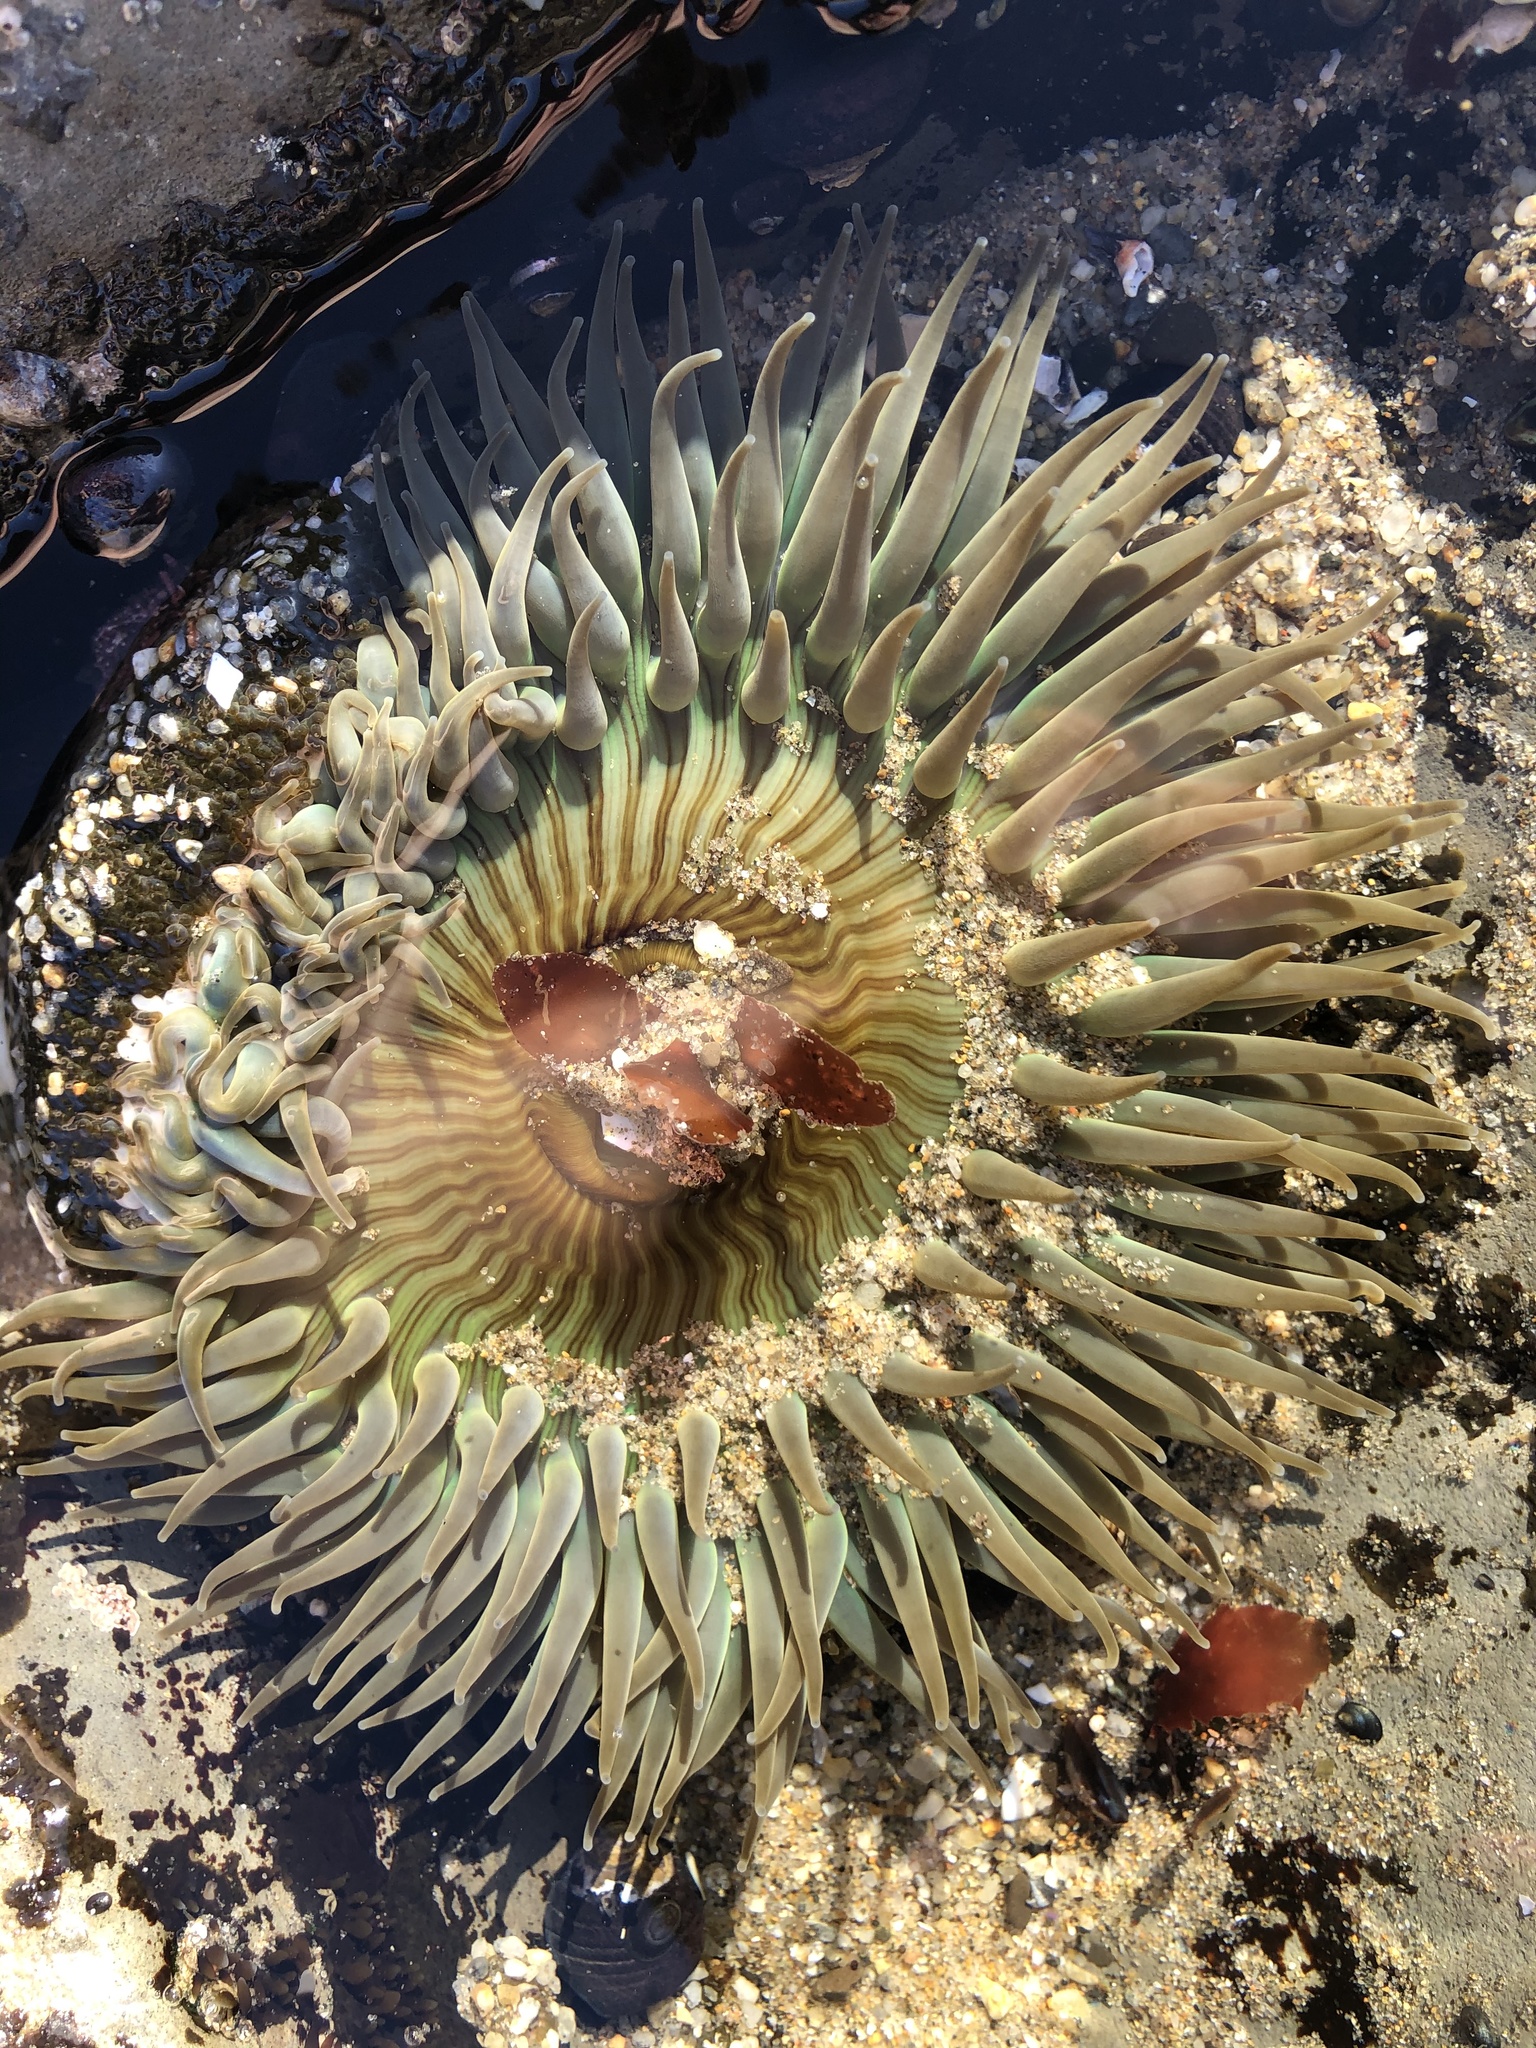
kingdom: Animalia
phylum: Cnidaria
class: Anthozoa
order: Actiniaria
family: Actiniidae
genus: Anthopleura
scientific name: Anthopleura sola
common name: Sun anemone
